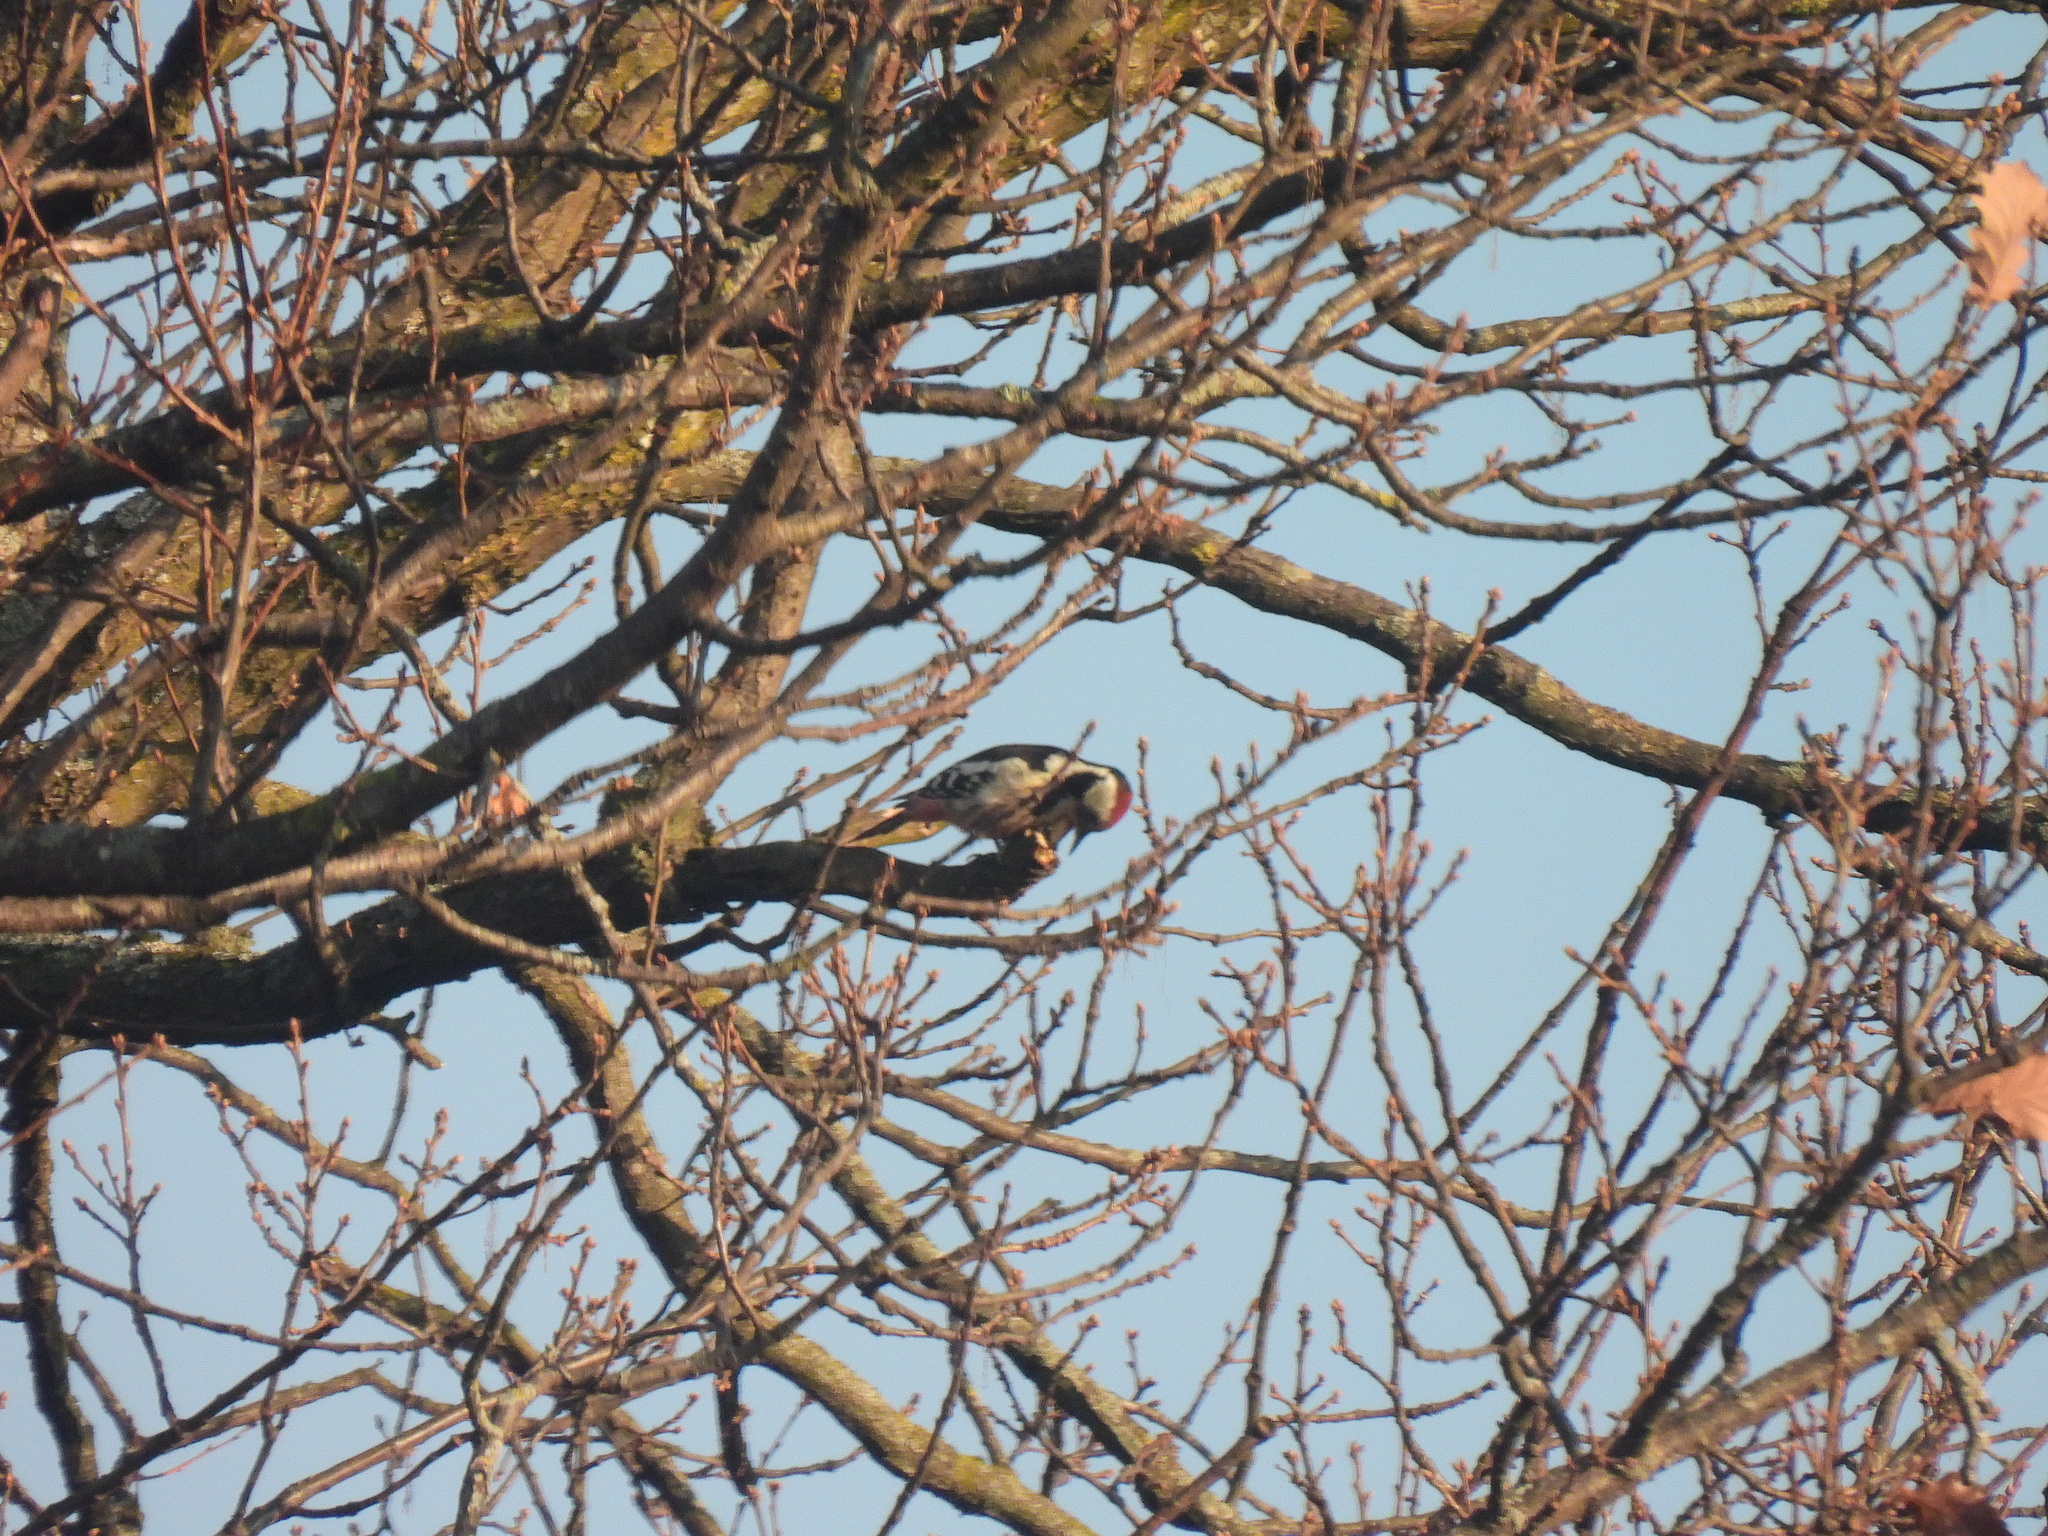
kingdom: Animalia
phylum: Chordata
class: Aves
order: Piciformes
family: Picidae
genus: Dendrocoptes
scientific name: Dendrocoptes medius
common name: Middle spotted woodpecker
